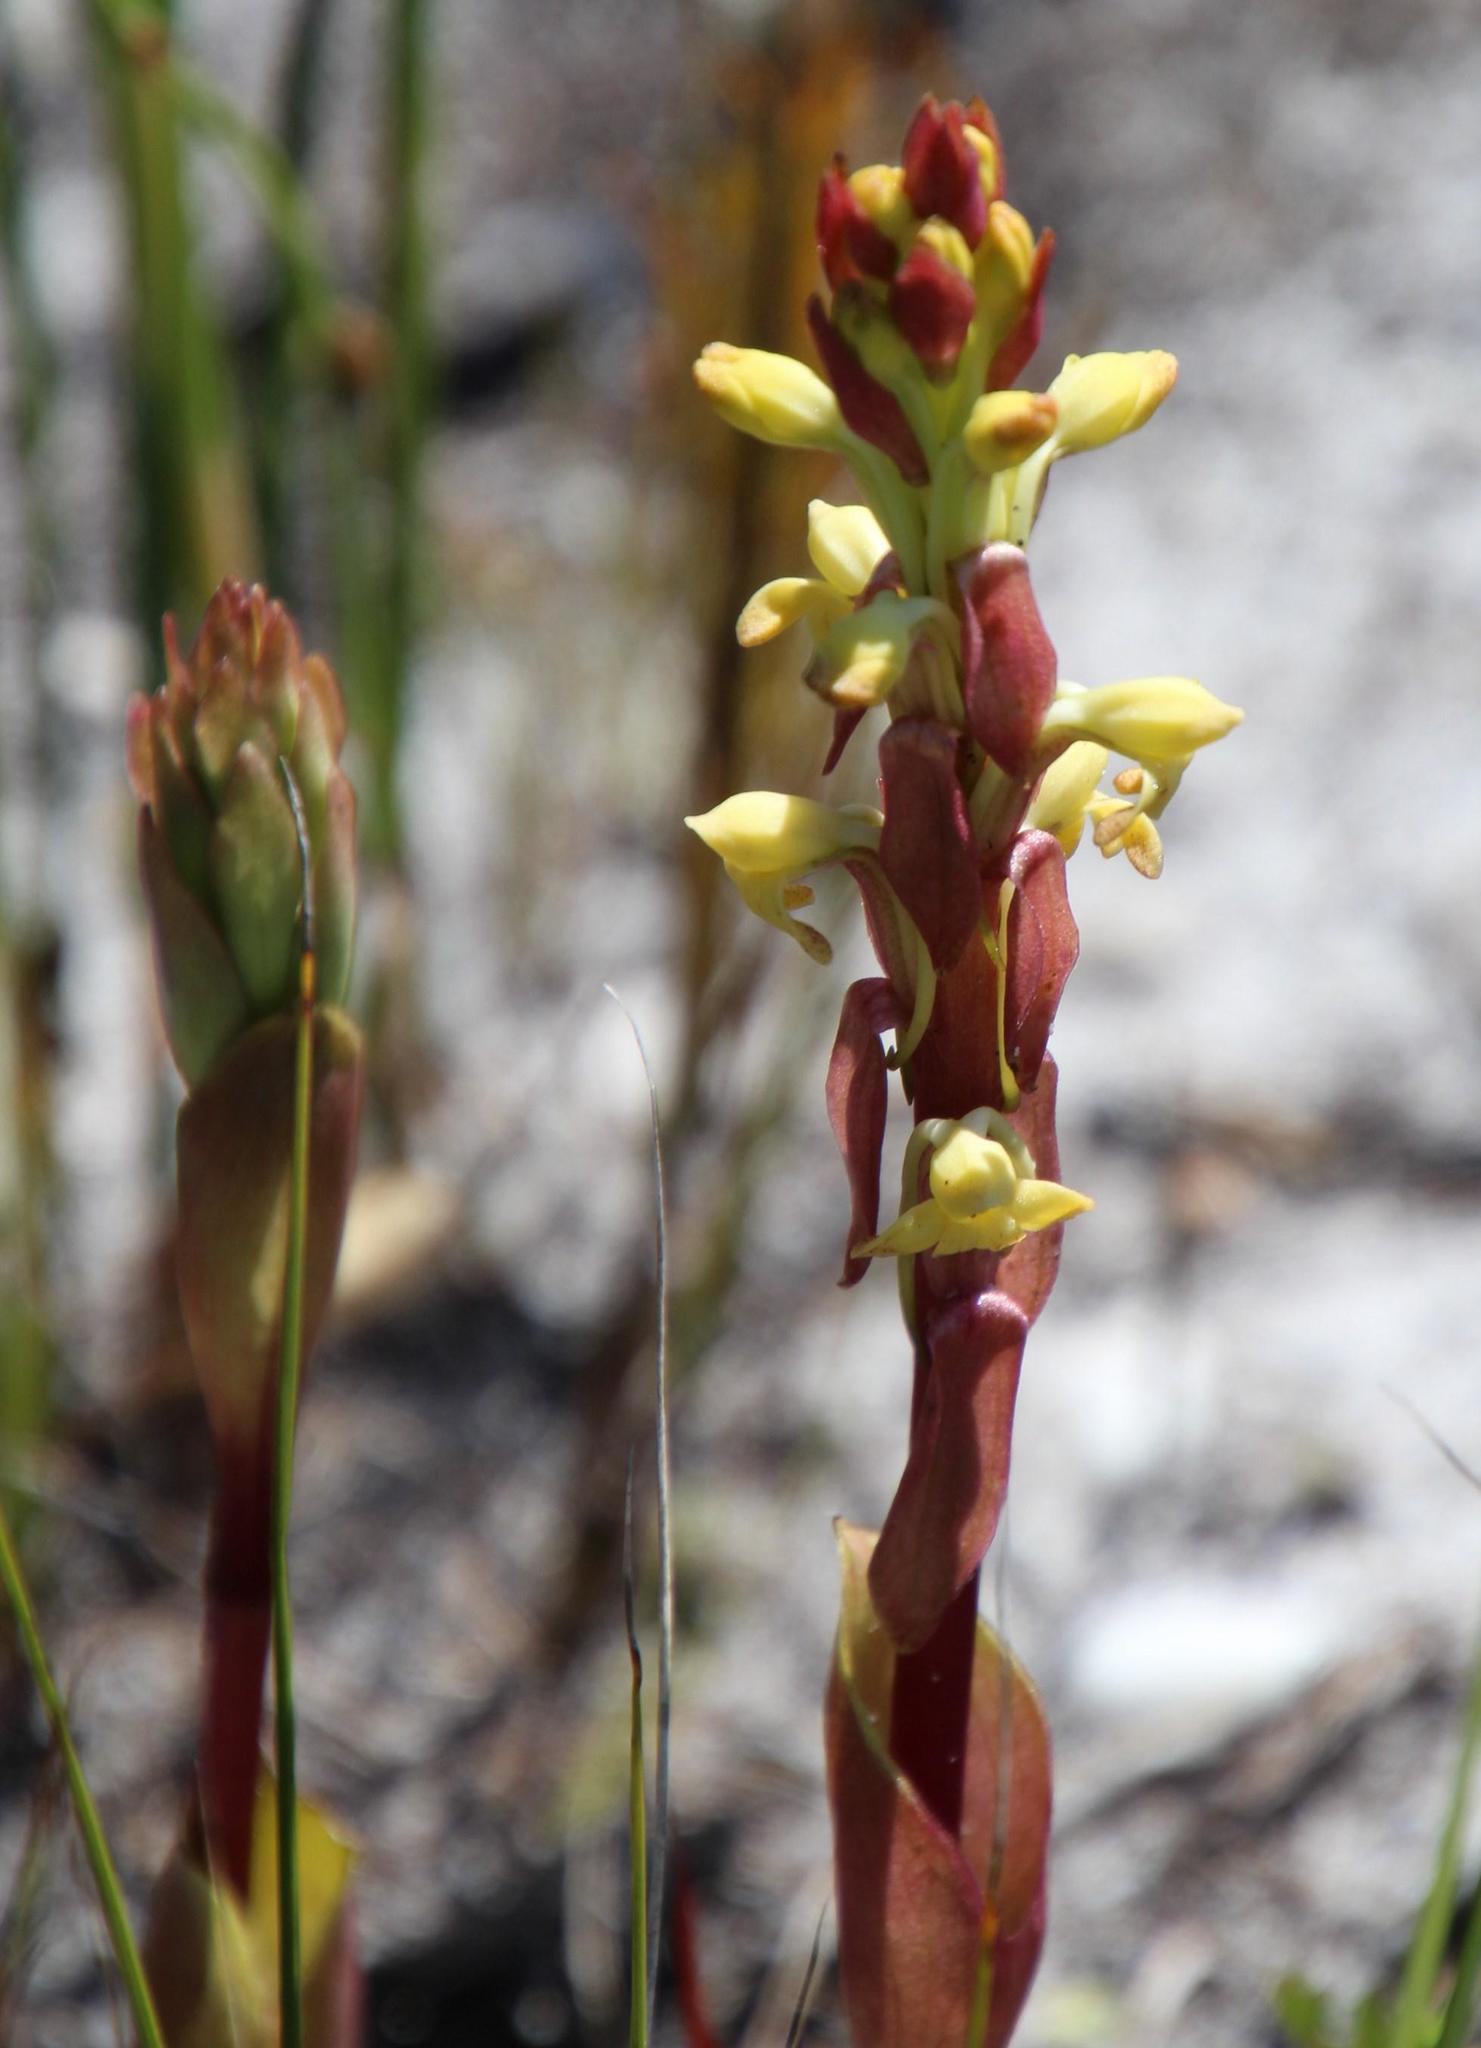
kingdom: Plantae
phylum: Tracheophyta
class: Liliopsida
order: Asparagales
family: Orchidaceae
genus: Satyrium
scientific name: Satyrium bicorne
